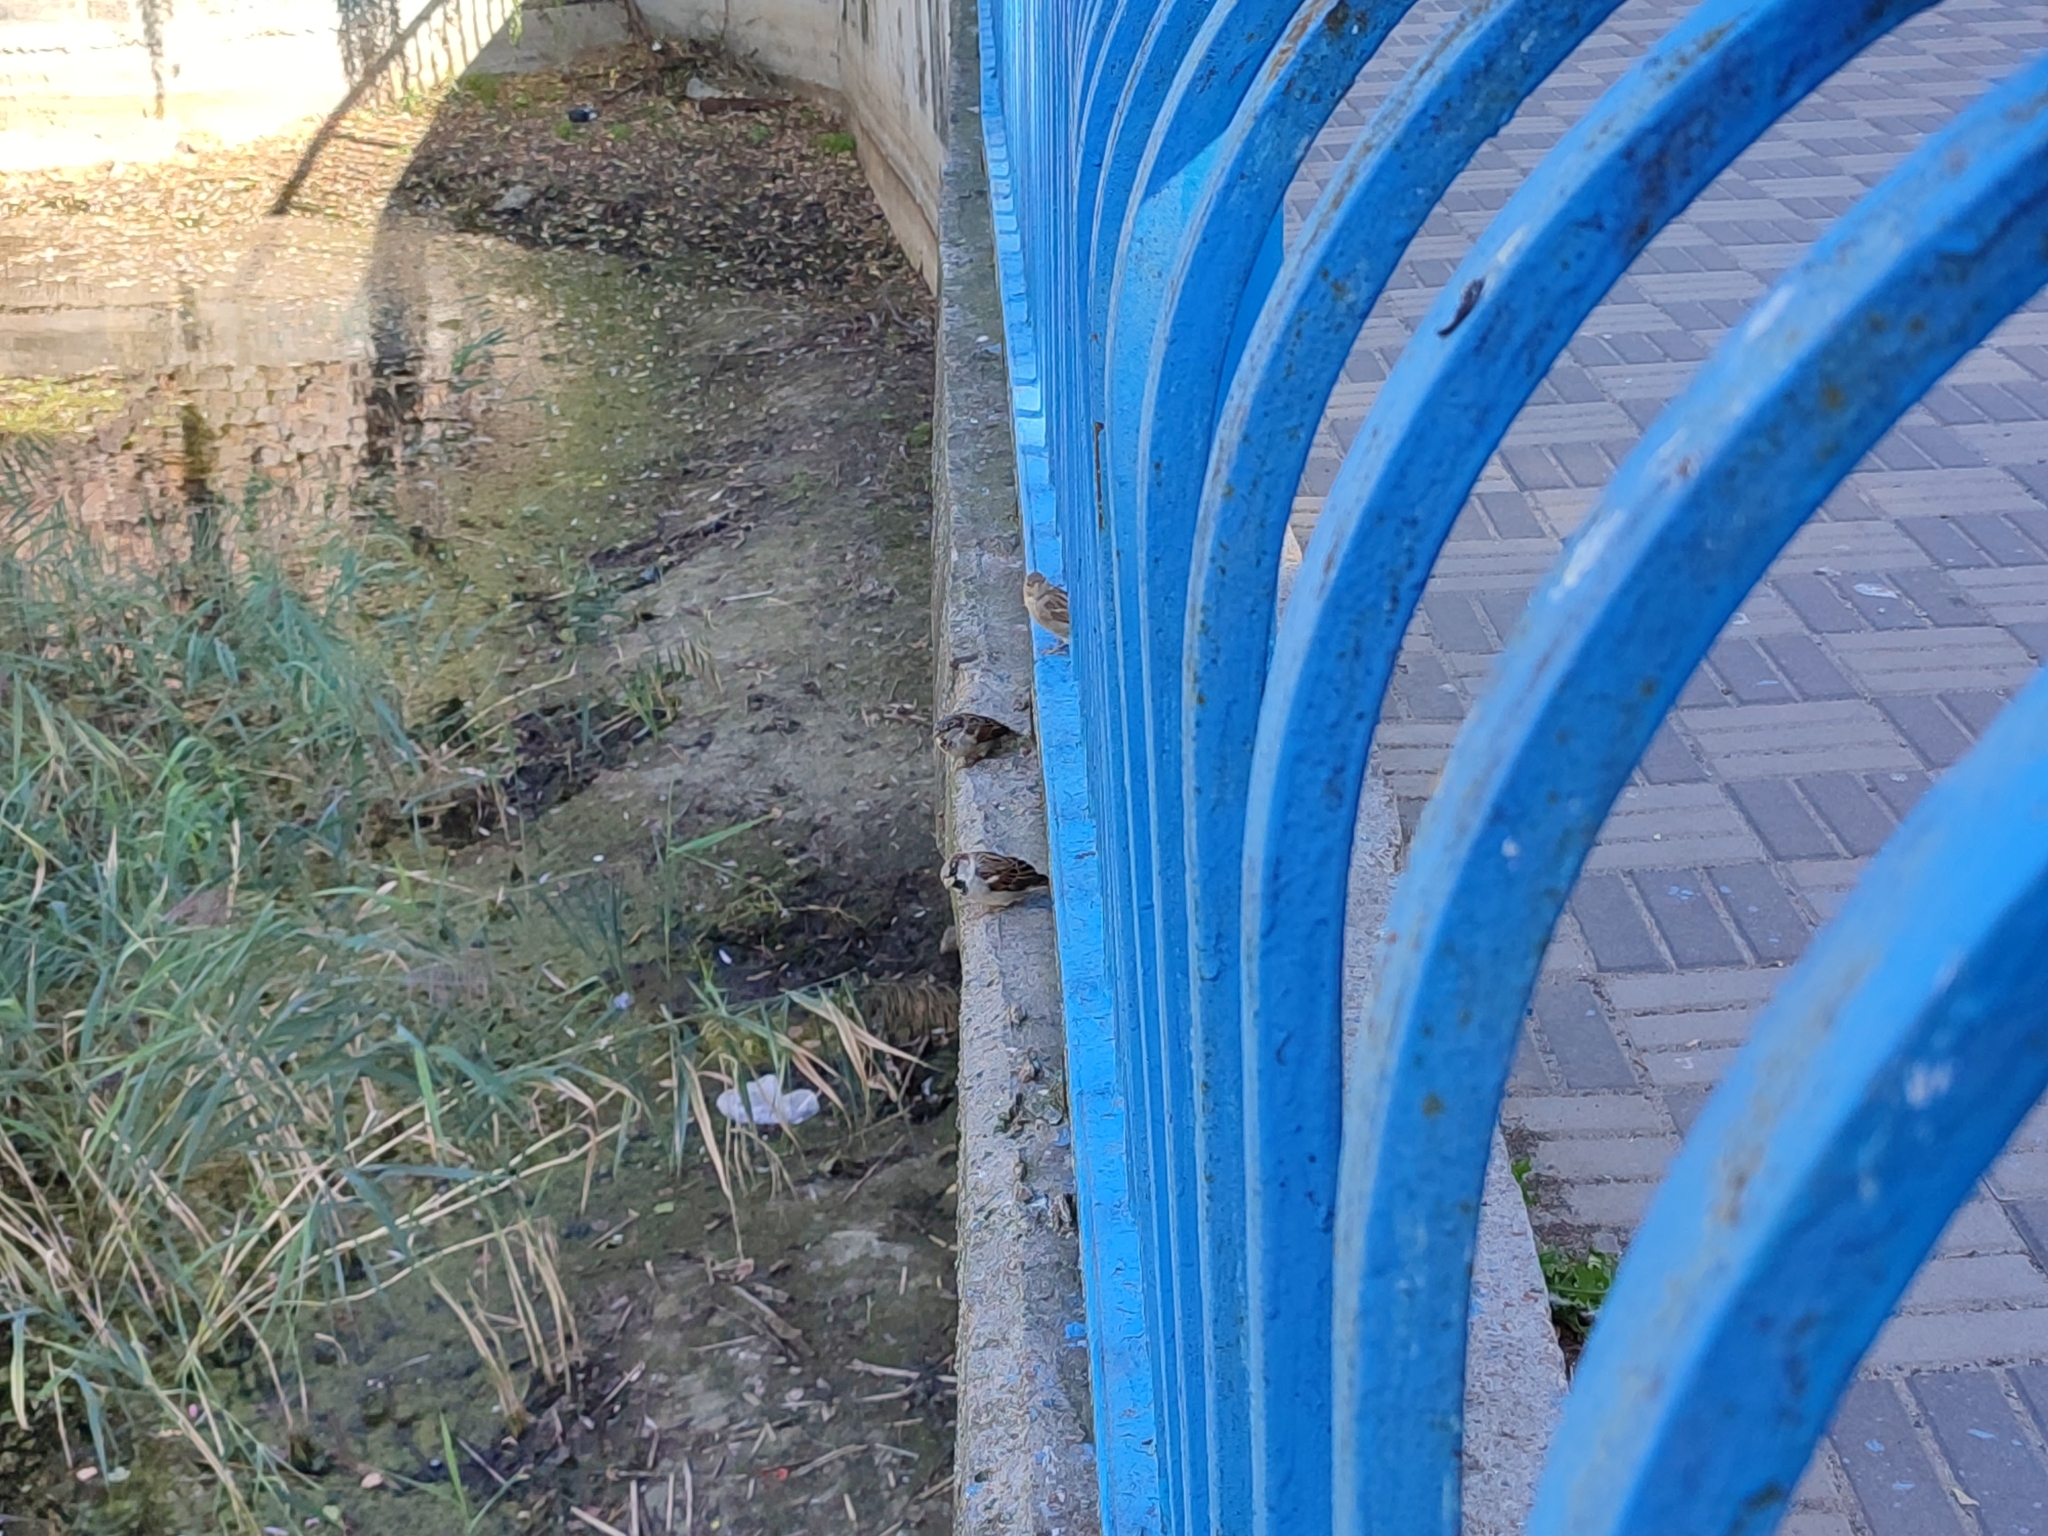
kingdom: Animalia
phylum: Chordata
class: Aves
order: Passeriformes
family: Passeridae
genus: Passer
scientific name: Passer domesticus
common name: House sparrow
